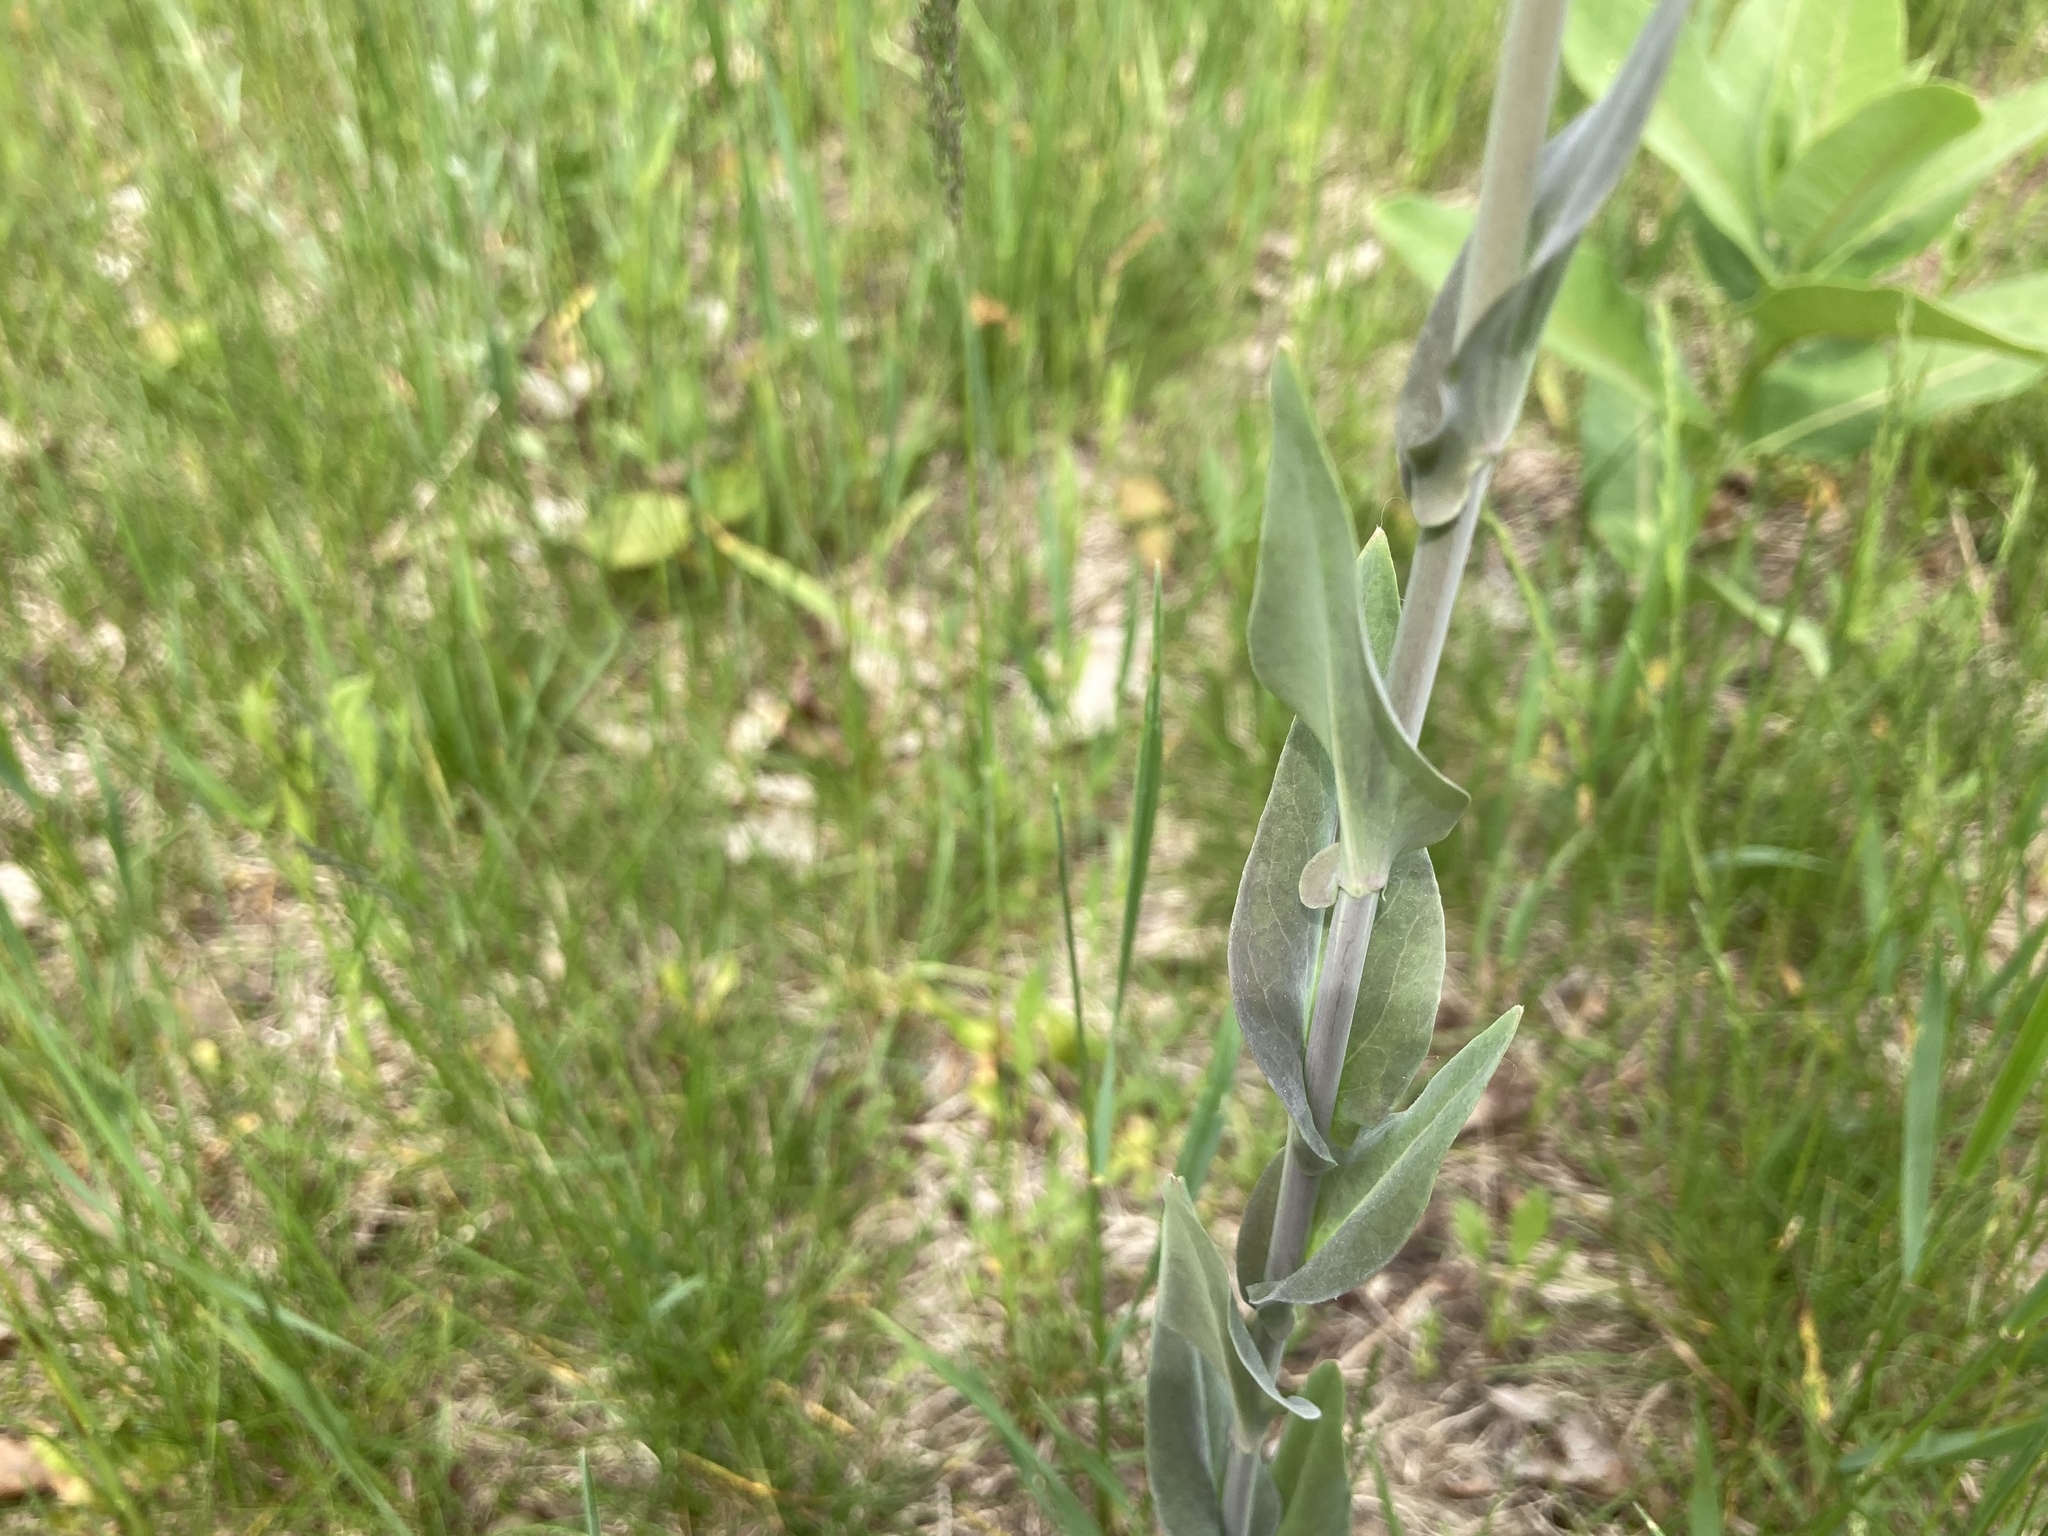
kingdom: Plantae
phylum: Tracheophyta
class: Magnoliopsida
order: Brassicales
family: Brassicaceae
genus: Turritis
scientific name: Turritis glabra
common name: Tower rockcress
